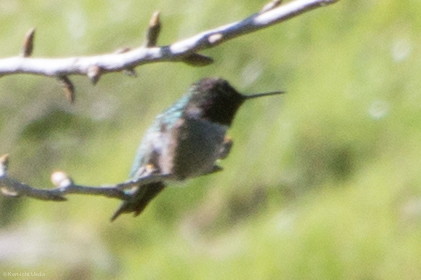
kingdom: Animalia
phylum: Chordata
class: Aves
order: Apodiformes
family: Trochilidae
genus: Calypte
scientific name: Calypte anna
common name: Anna's hummingbird
